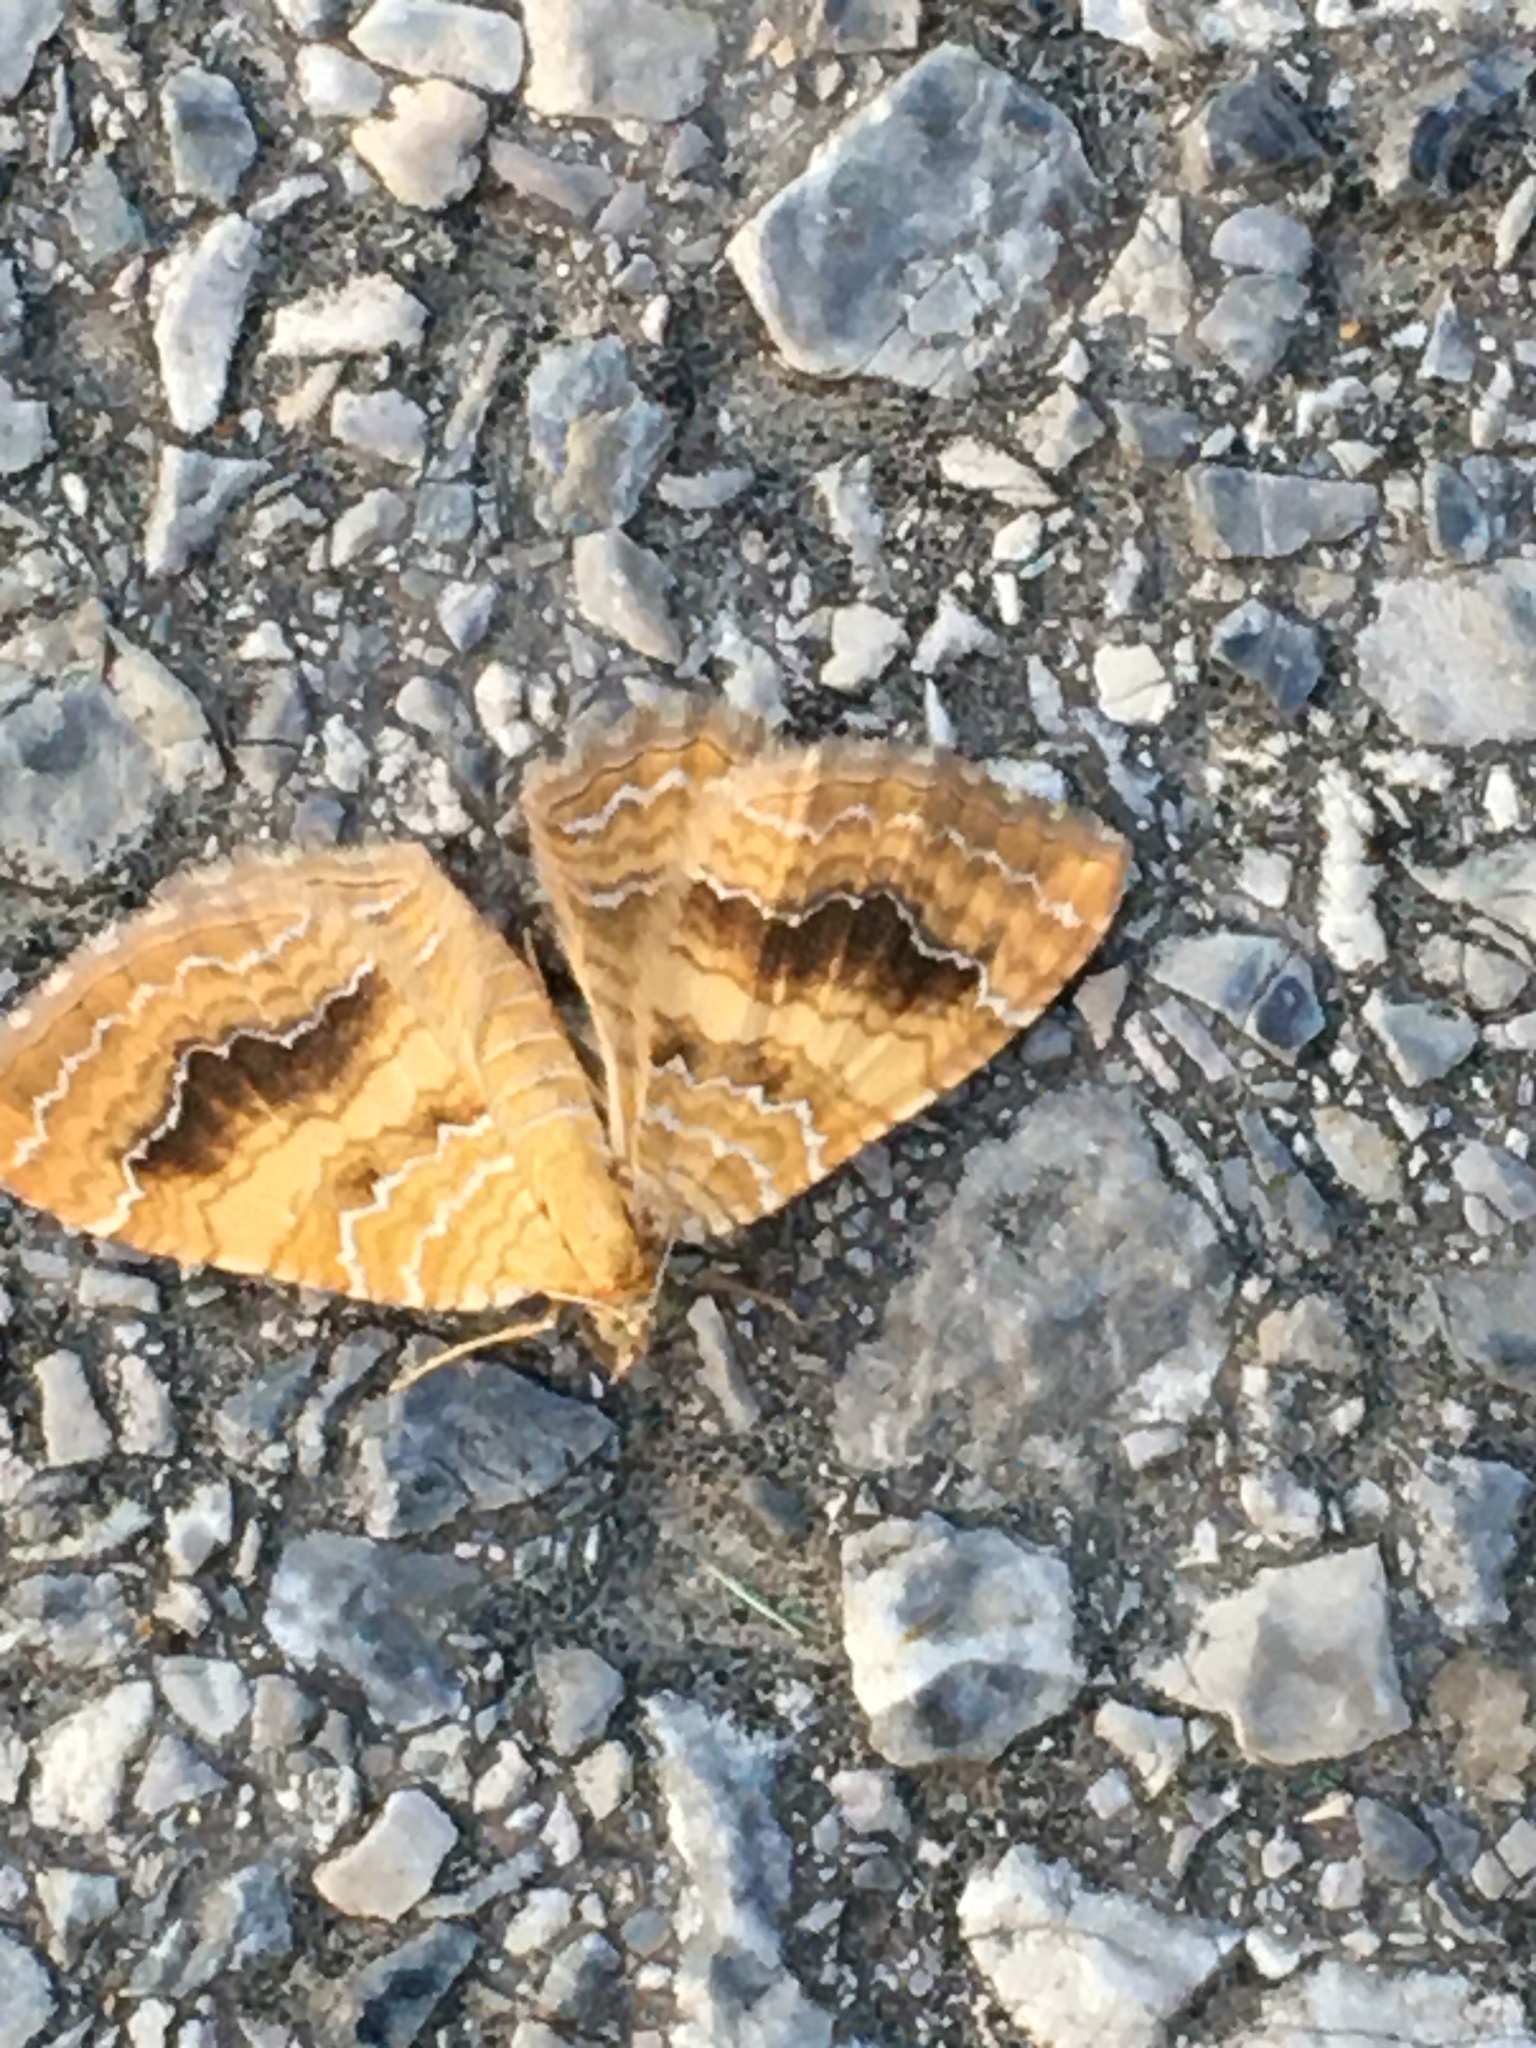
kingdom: Animalia
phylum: Arthropoda
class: Insecta
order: Lepidoptera
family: Geometridae
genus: Camptogramma
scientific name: Camptogramma bilineata
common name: Yellow shell
